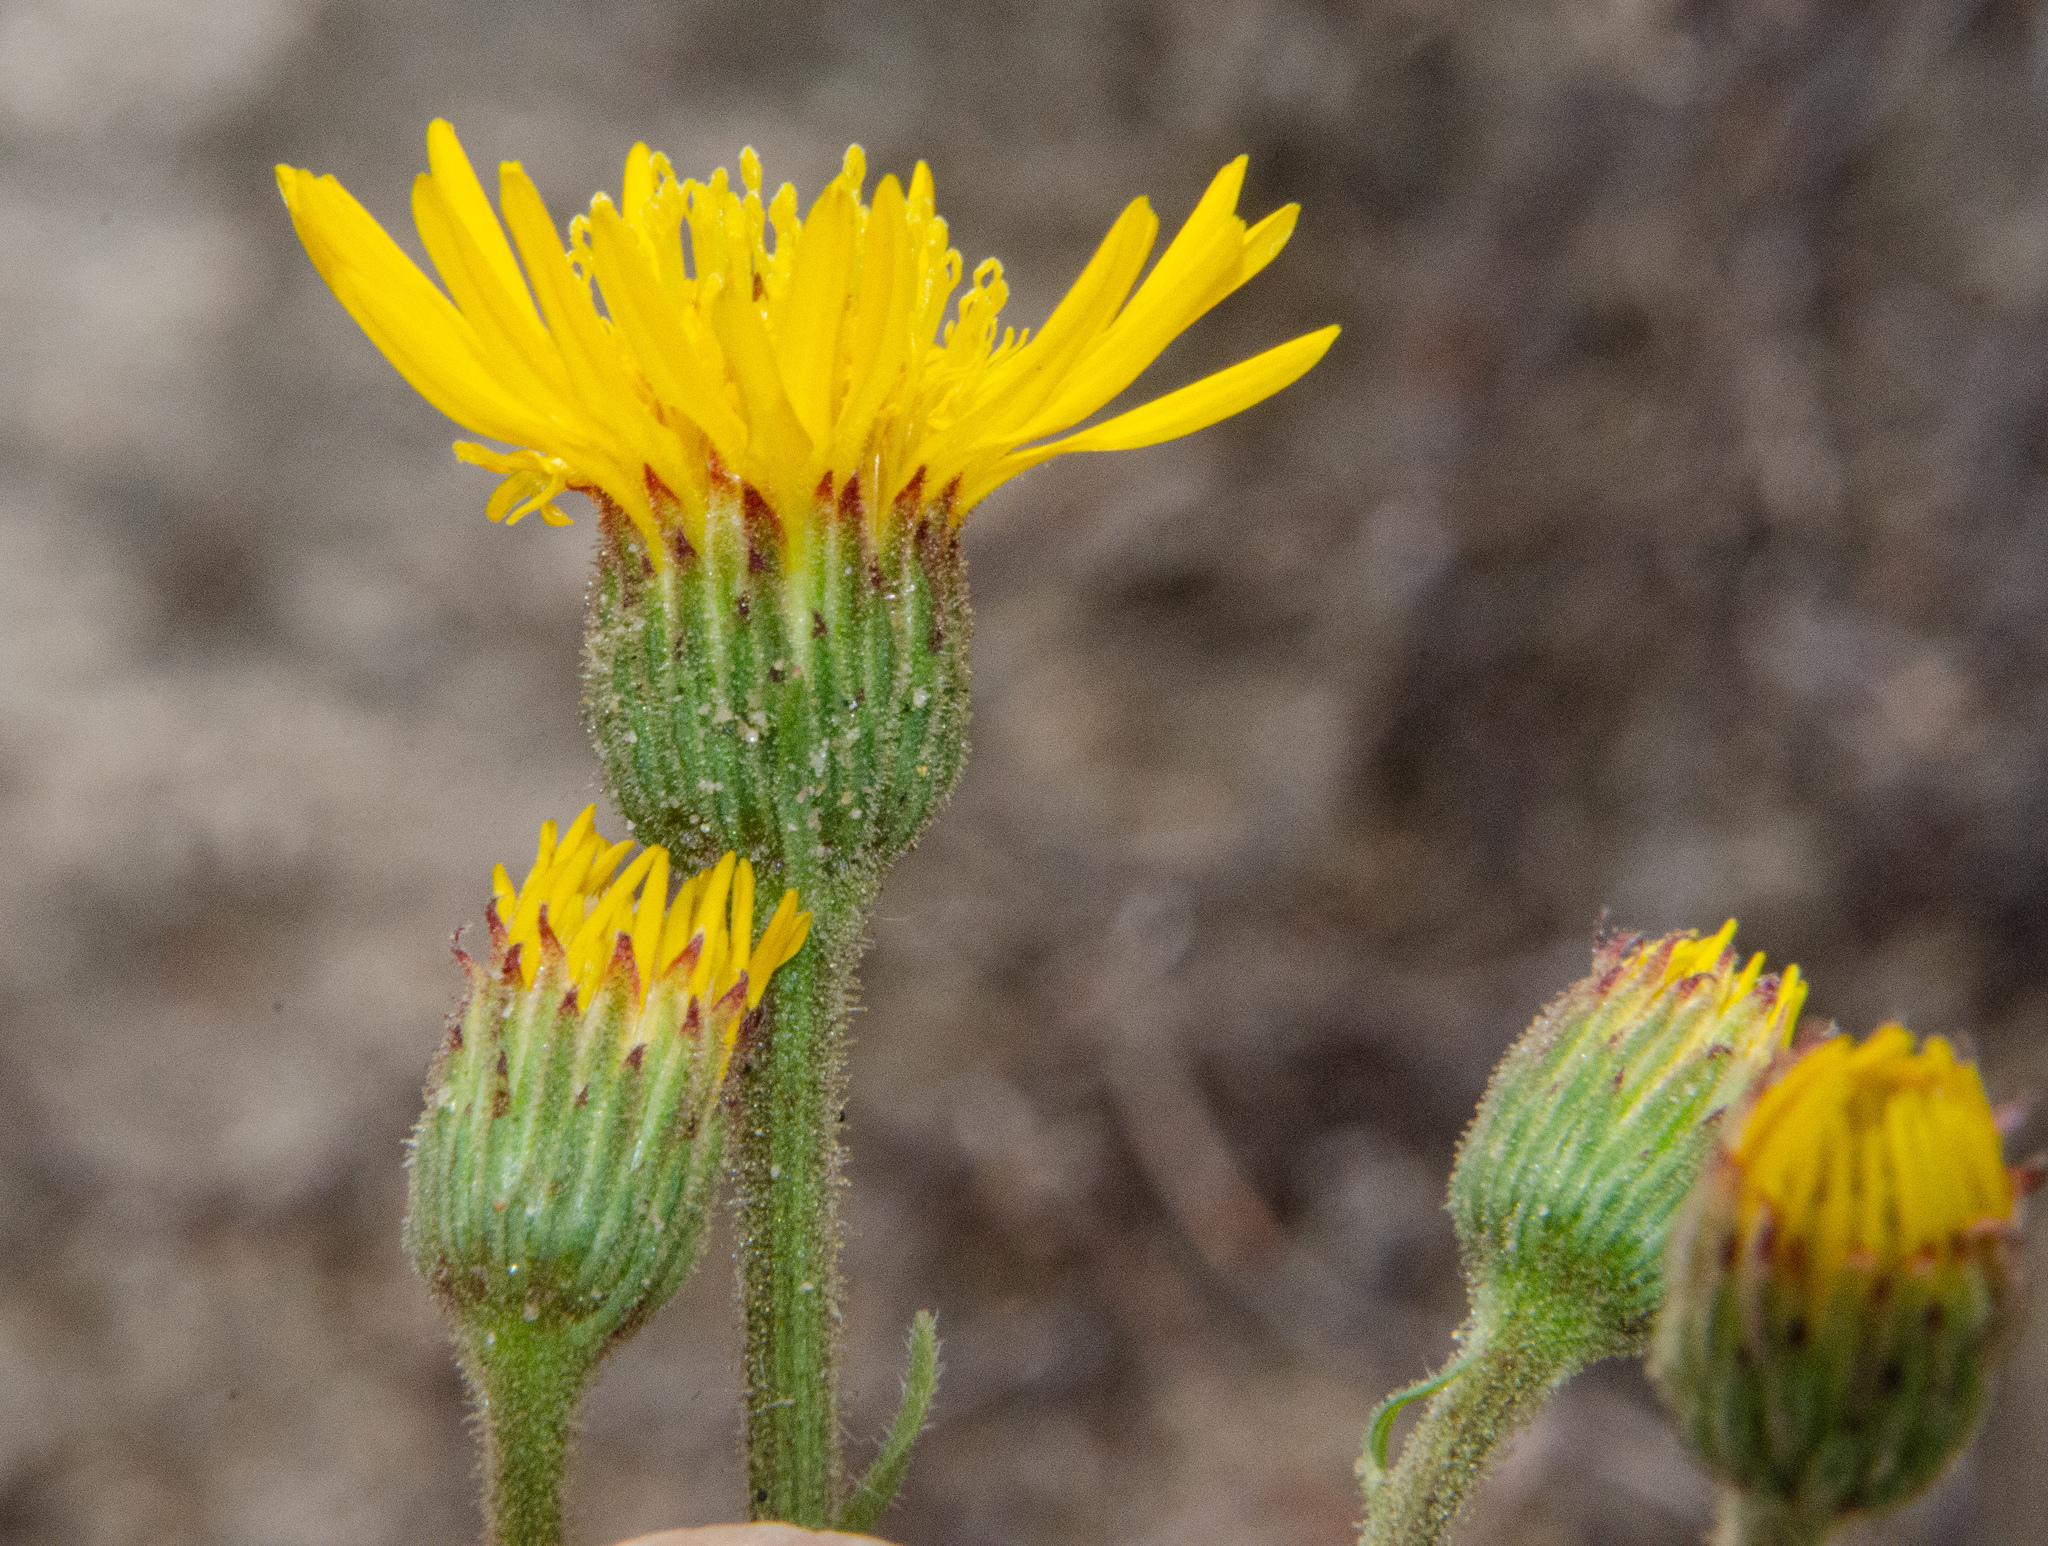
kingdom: Plantae
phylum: Tracheophyta
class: Magnoliopsida
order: Asterales
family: Asteraceae
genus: Heterotheca
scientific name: Heterotheca grandiflora
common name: Telegraphweed
